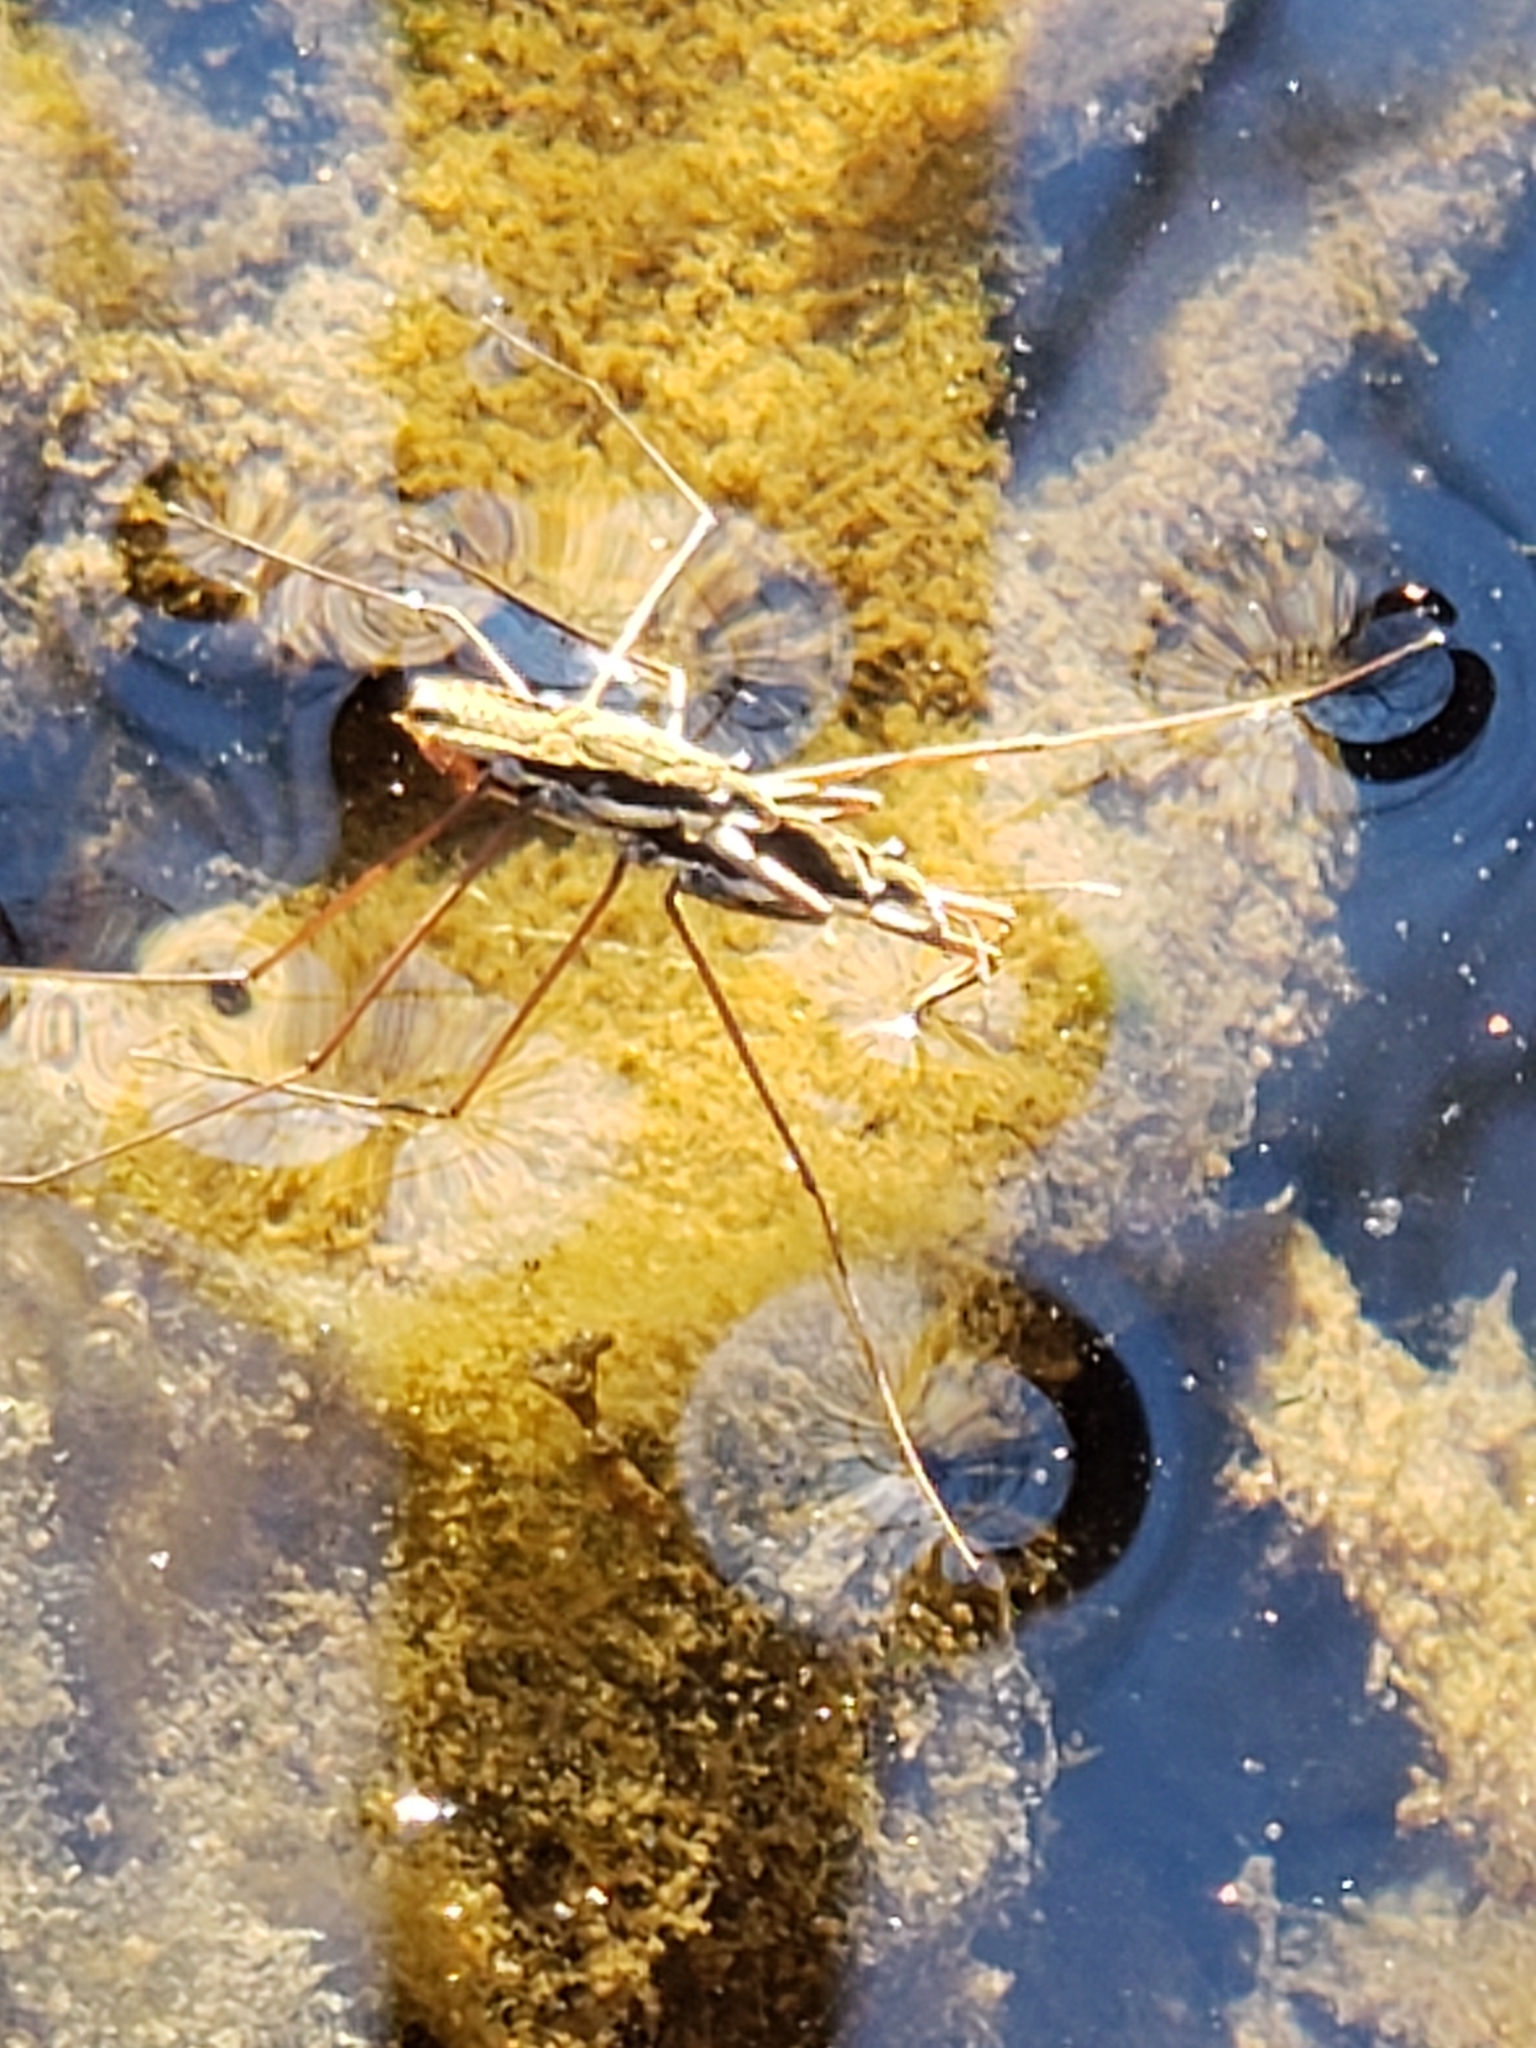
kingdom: Animalia
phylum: Arthropoda
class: Insecta
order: Hemiptera
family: Gerridae
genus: Aquarius
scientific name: Aquarius
